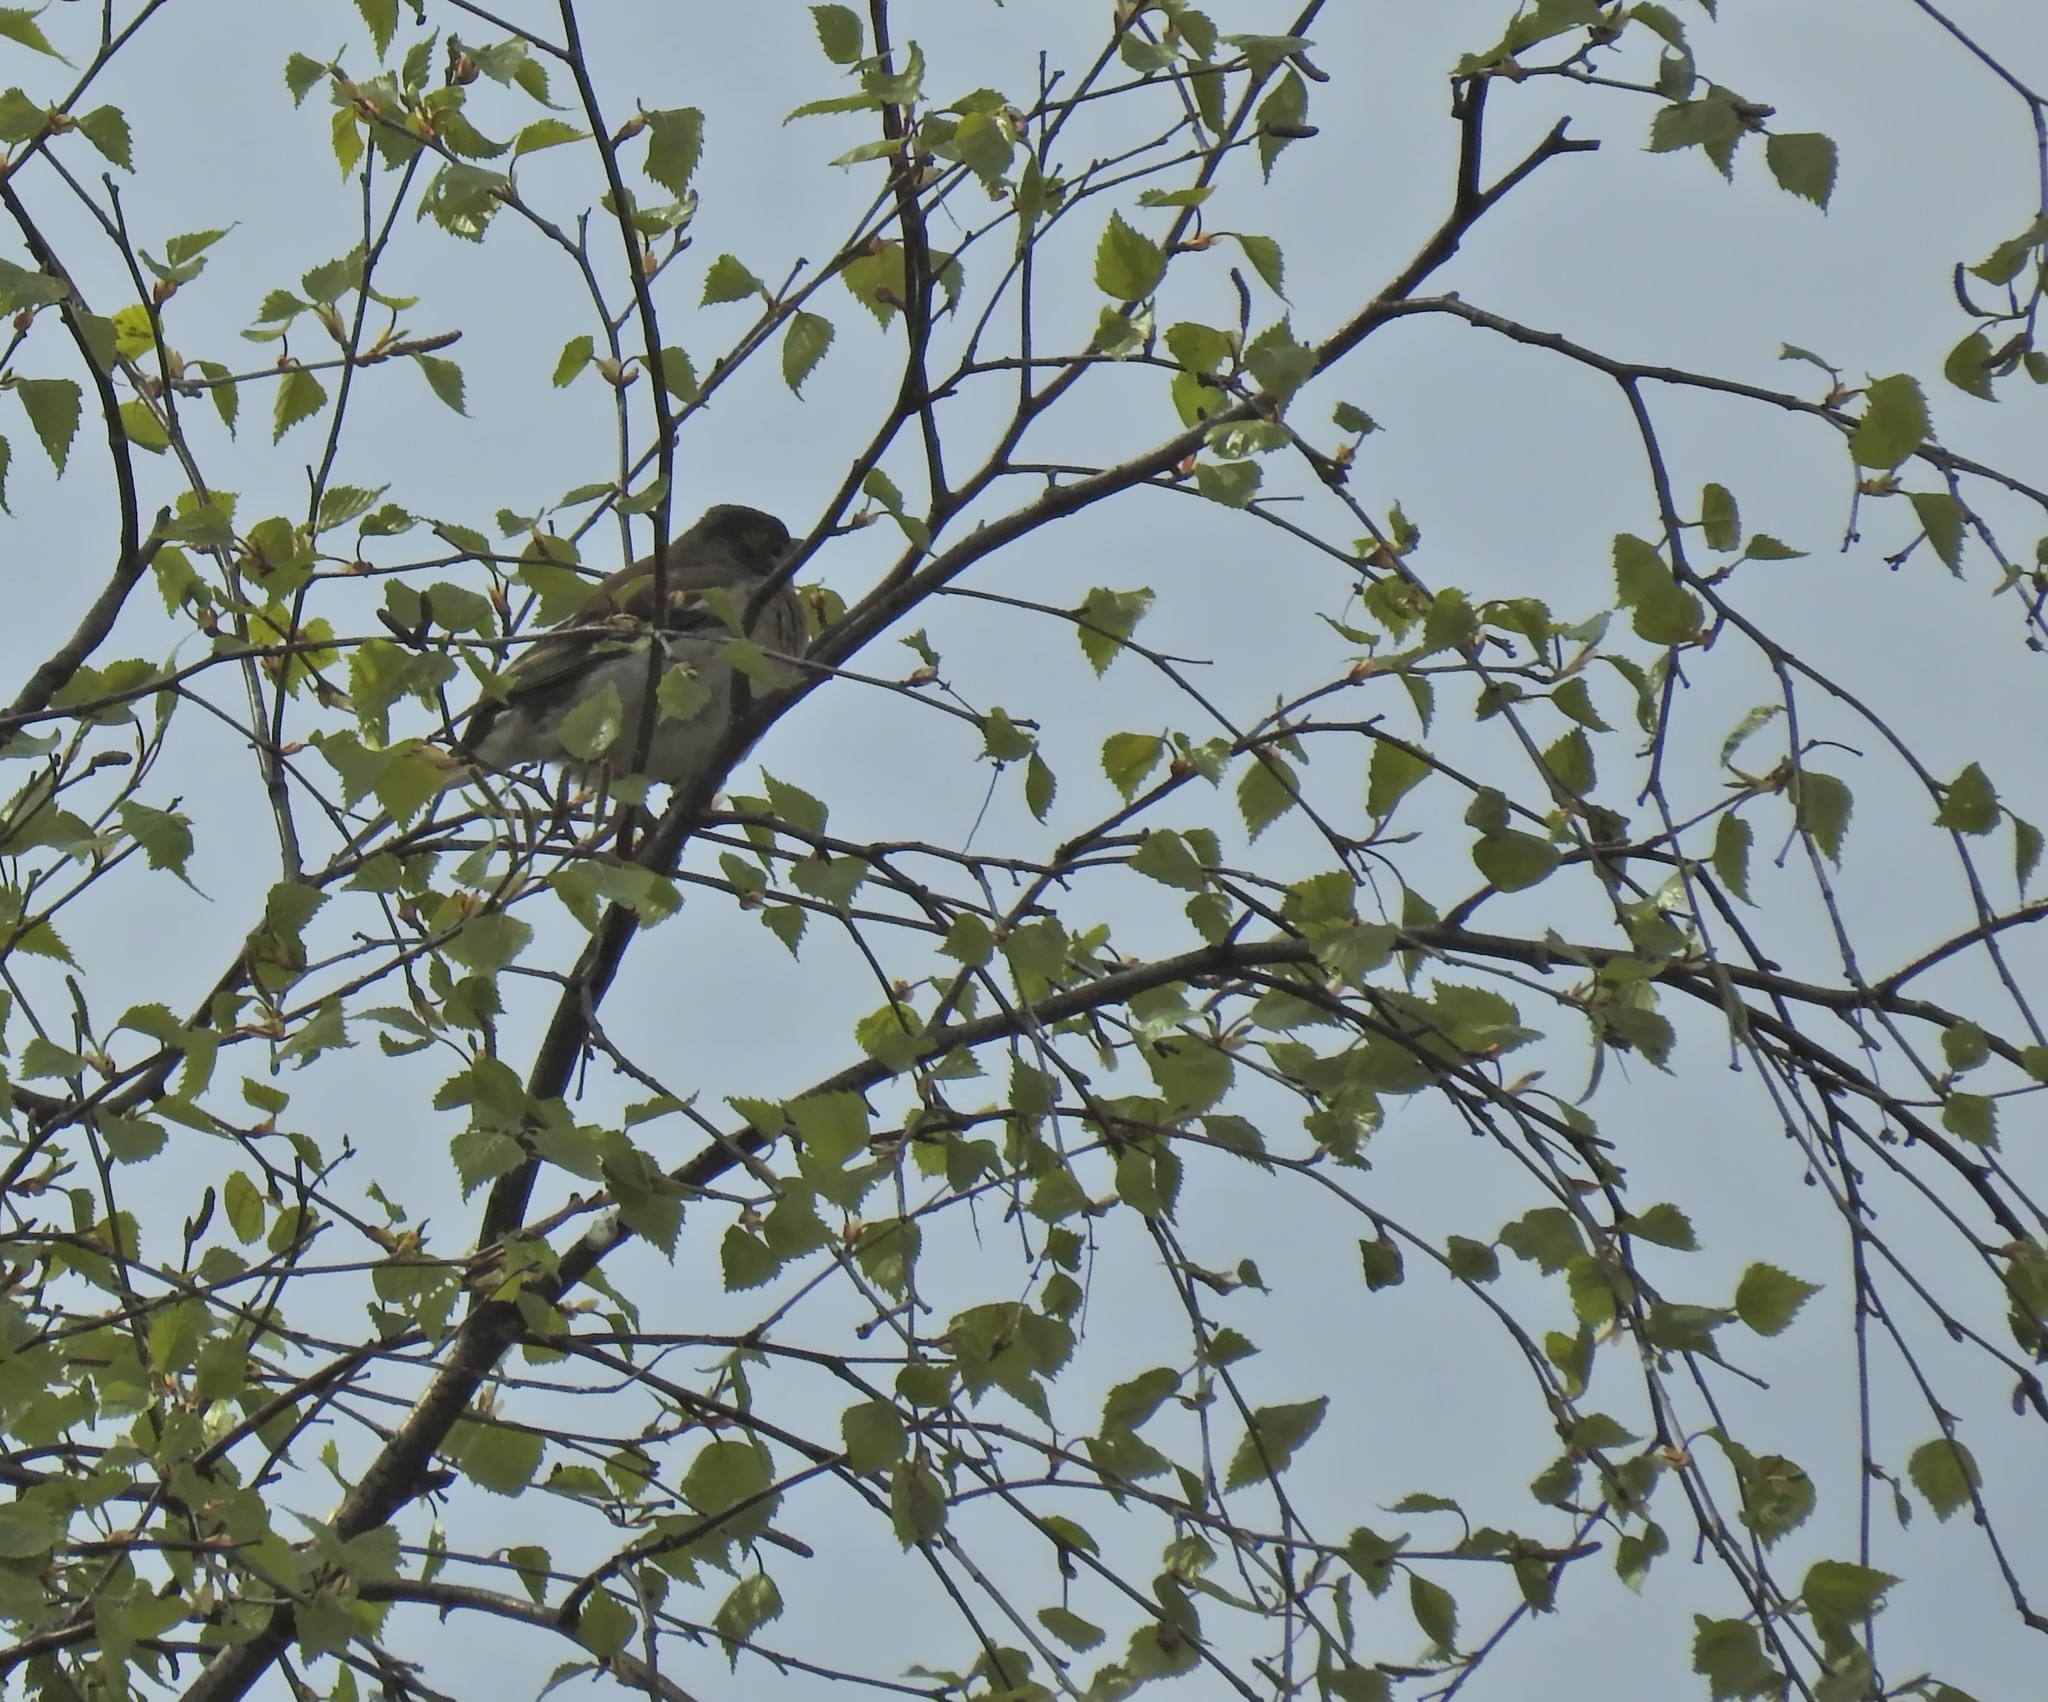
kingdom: Animalia
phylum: Chordata
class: Aves
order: Passeriformes
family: Fringillidae
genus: Fringilla
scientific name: Fringilla coelebs
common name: Common chaffinch
